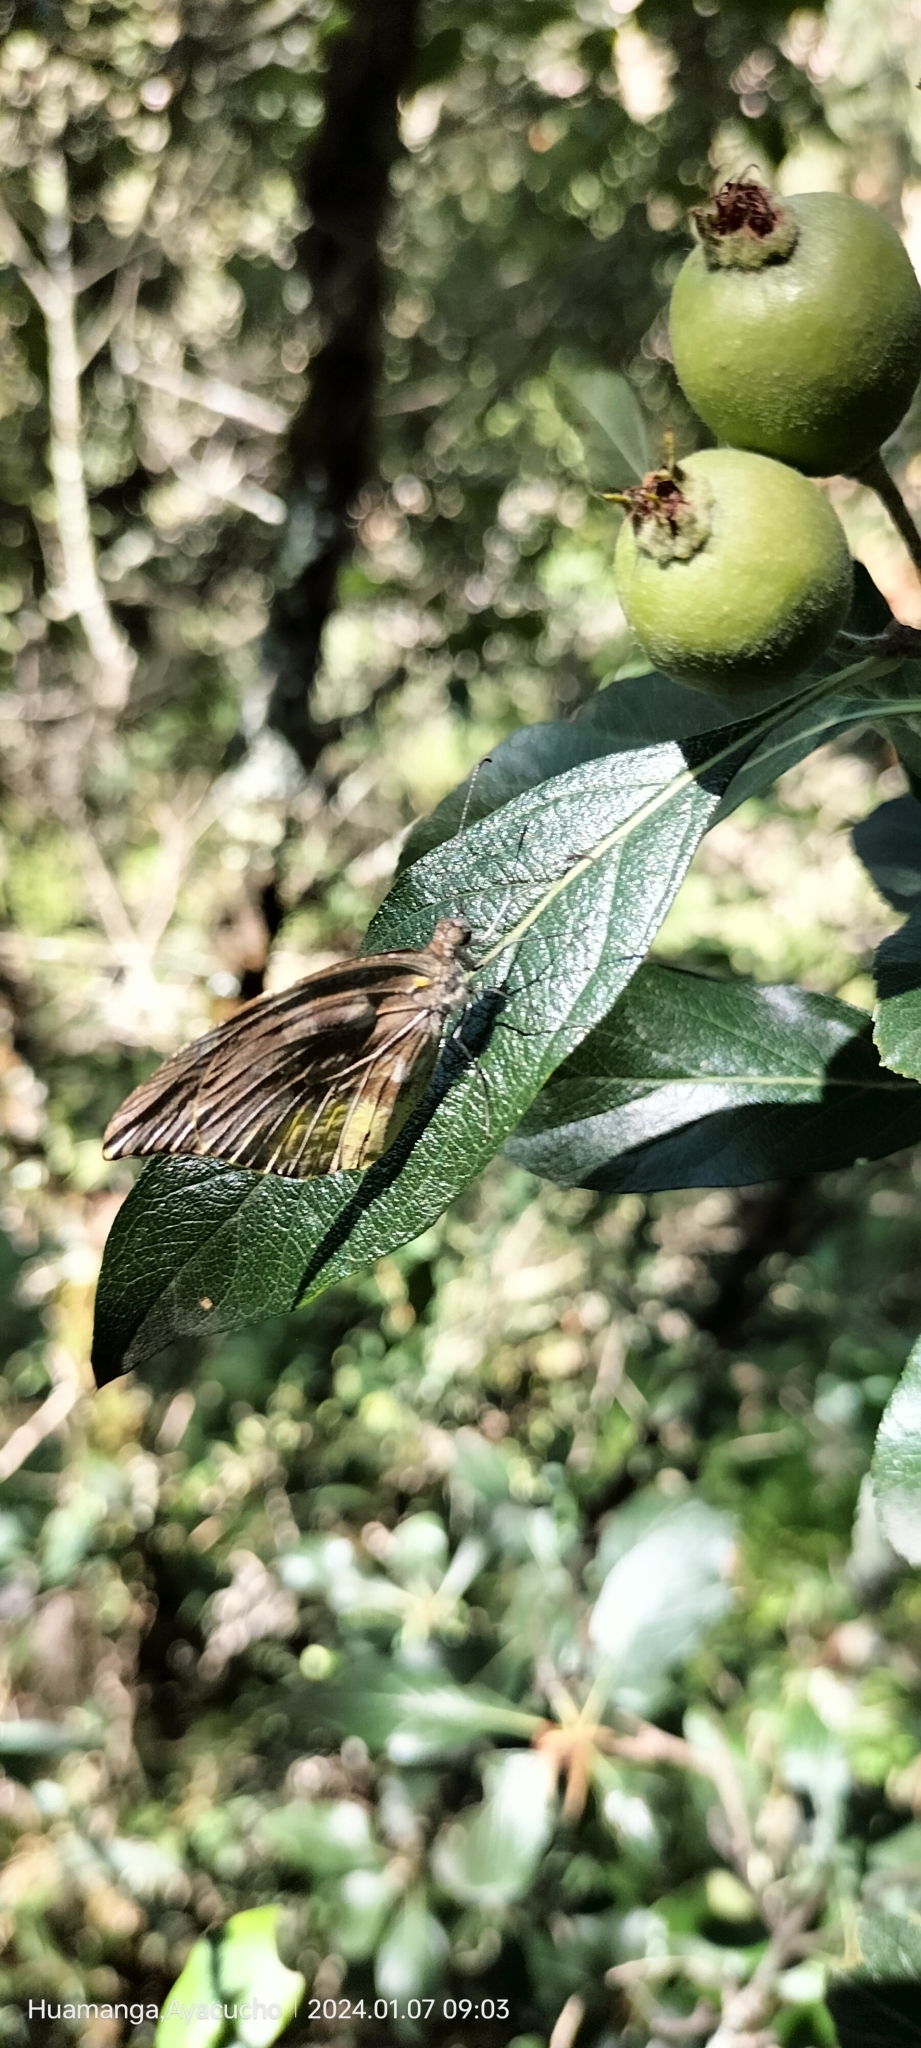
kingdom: Animalia
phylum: Arthropoda
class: Insecta
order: Lepidoptera
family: Pieridae
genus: Lieinix
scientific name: Lieinix nemesis
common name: Frosted mimic-white
